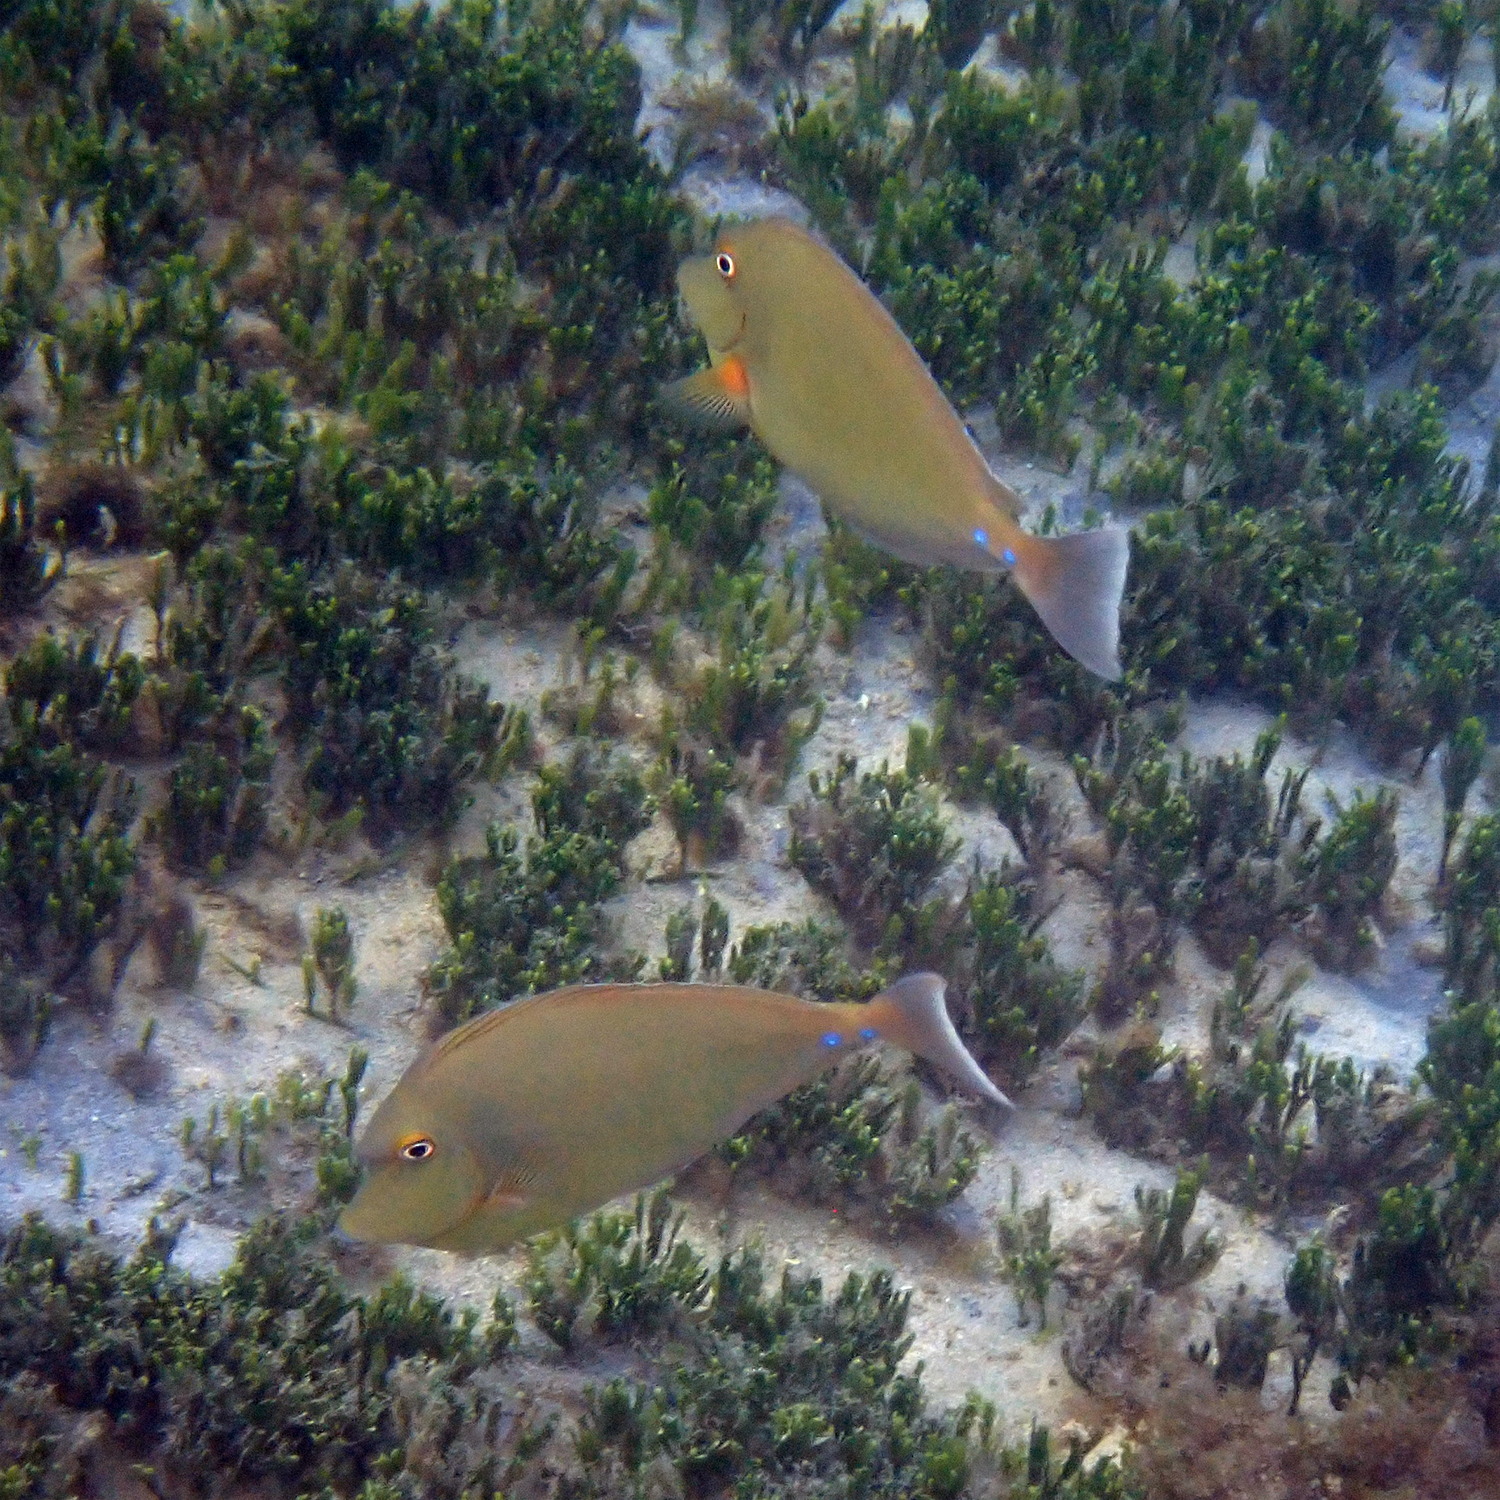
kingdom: Animalia
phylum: Chordata
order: Perciformes
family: Acanthuridae
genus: Naso
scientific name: Naso unicornis
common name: Bluespine unicornfish
